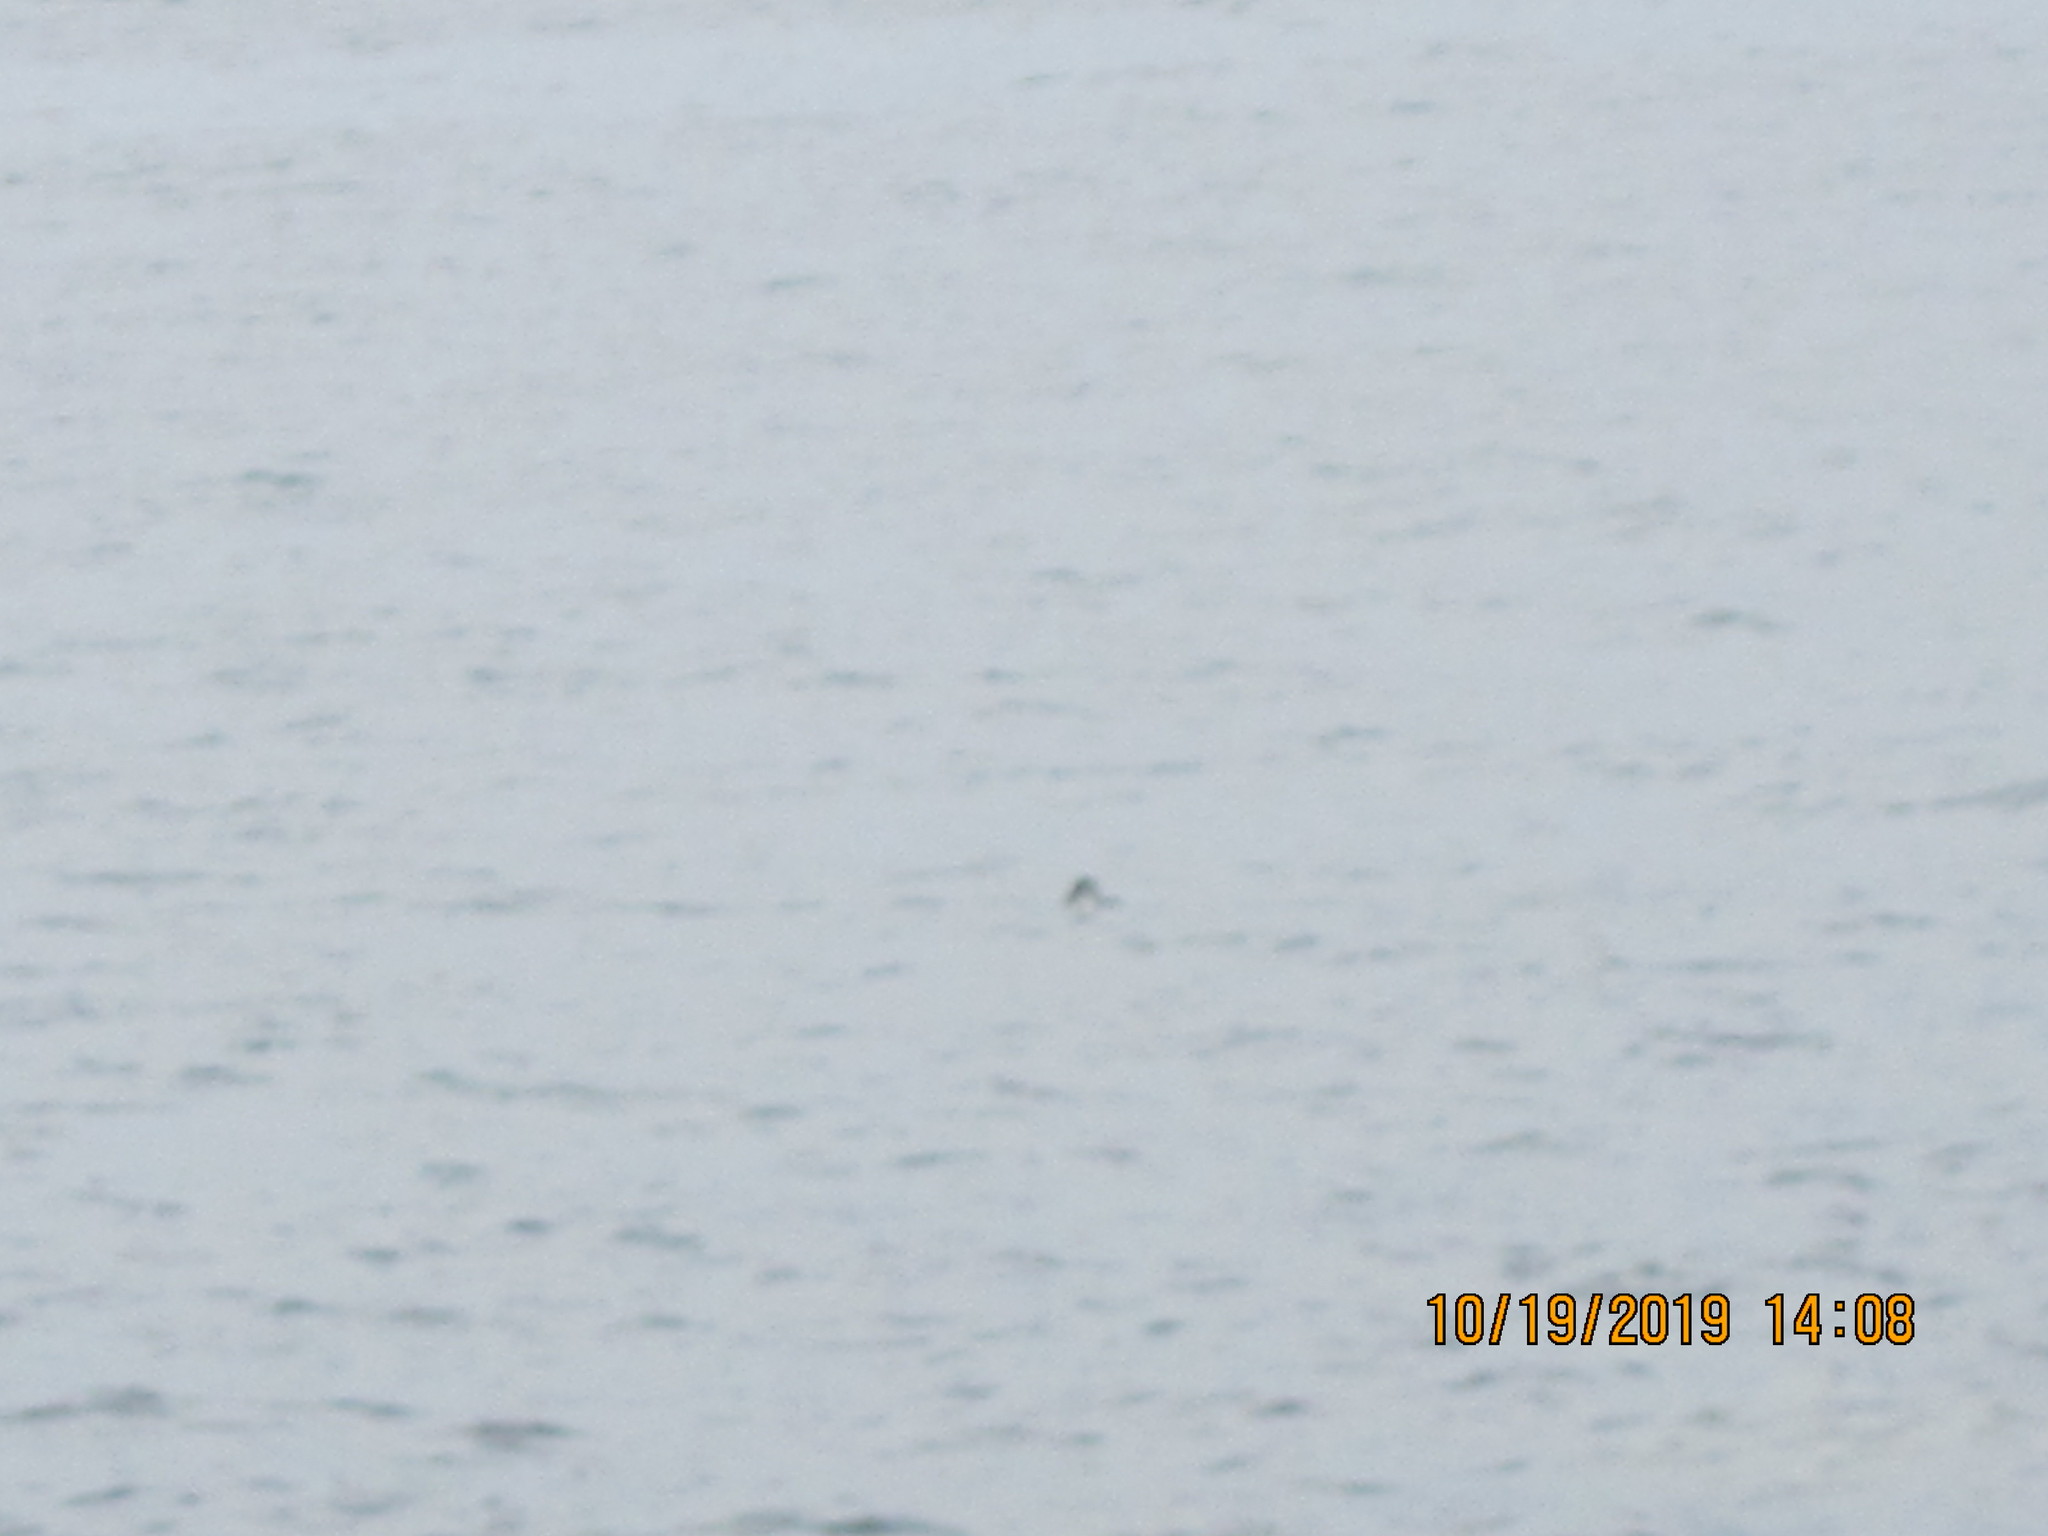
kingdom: Animalia
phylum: Chordata
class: Mammalia
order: Cetacea
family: Phocoenidae
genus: Phocoenoides
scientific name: Phocoenoides dalli
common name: Dall's porpoise
